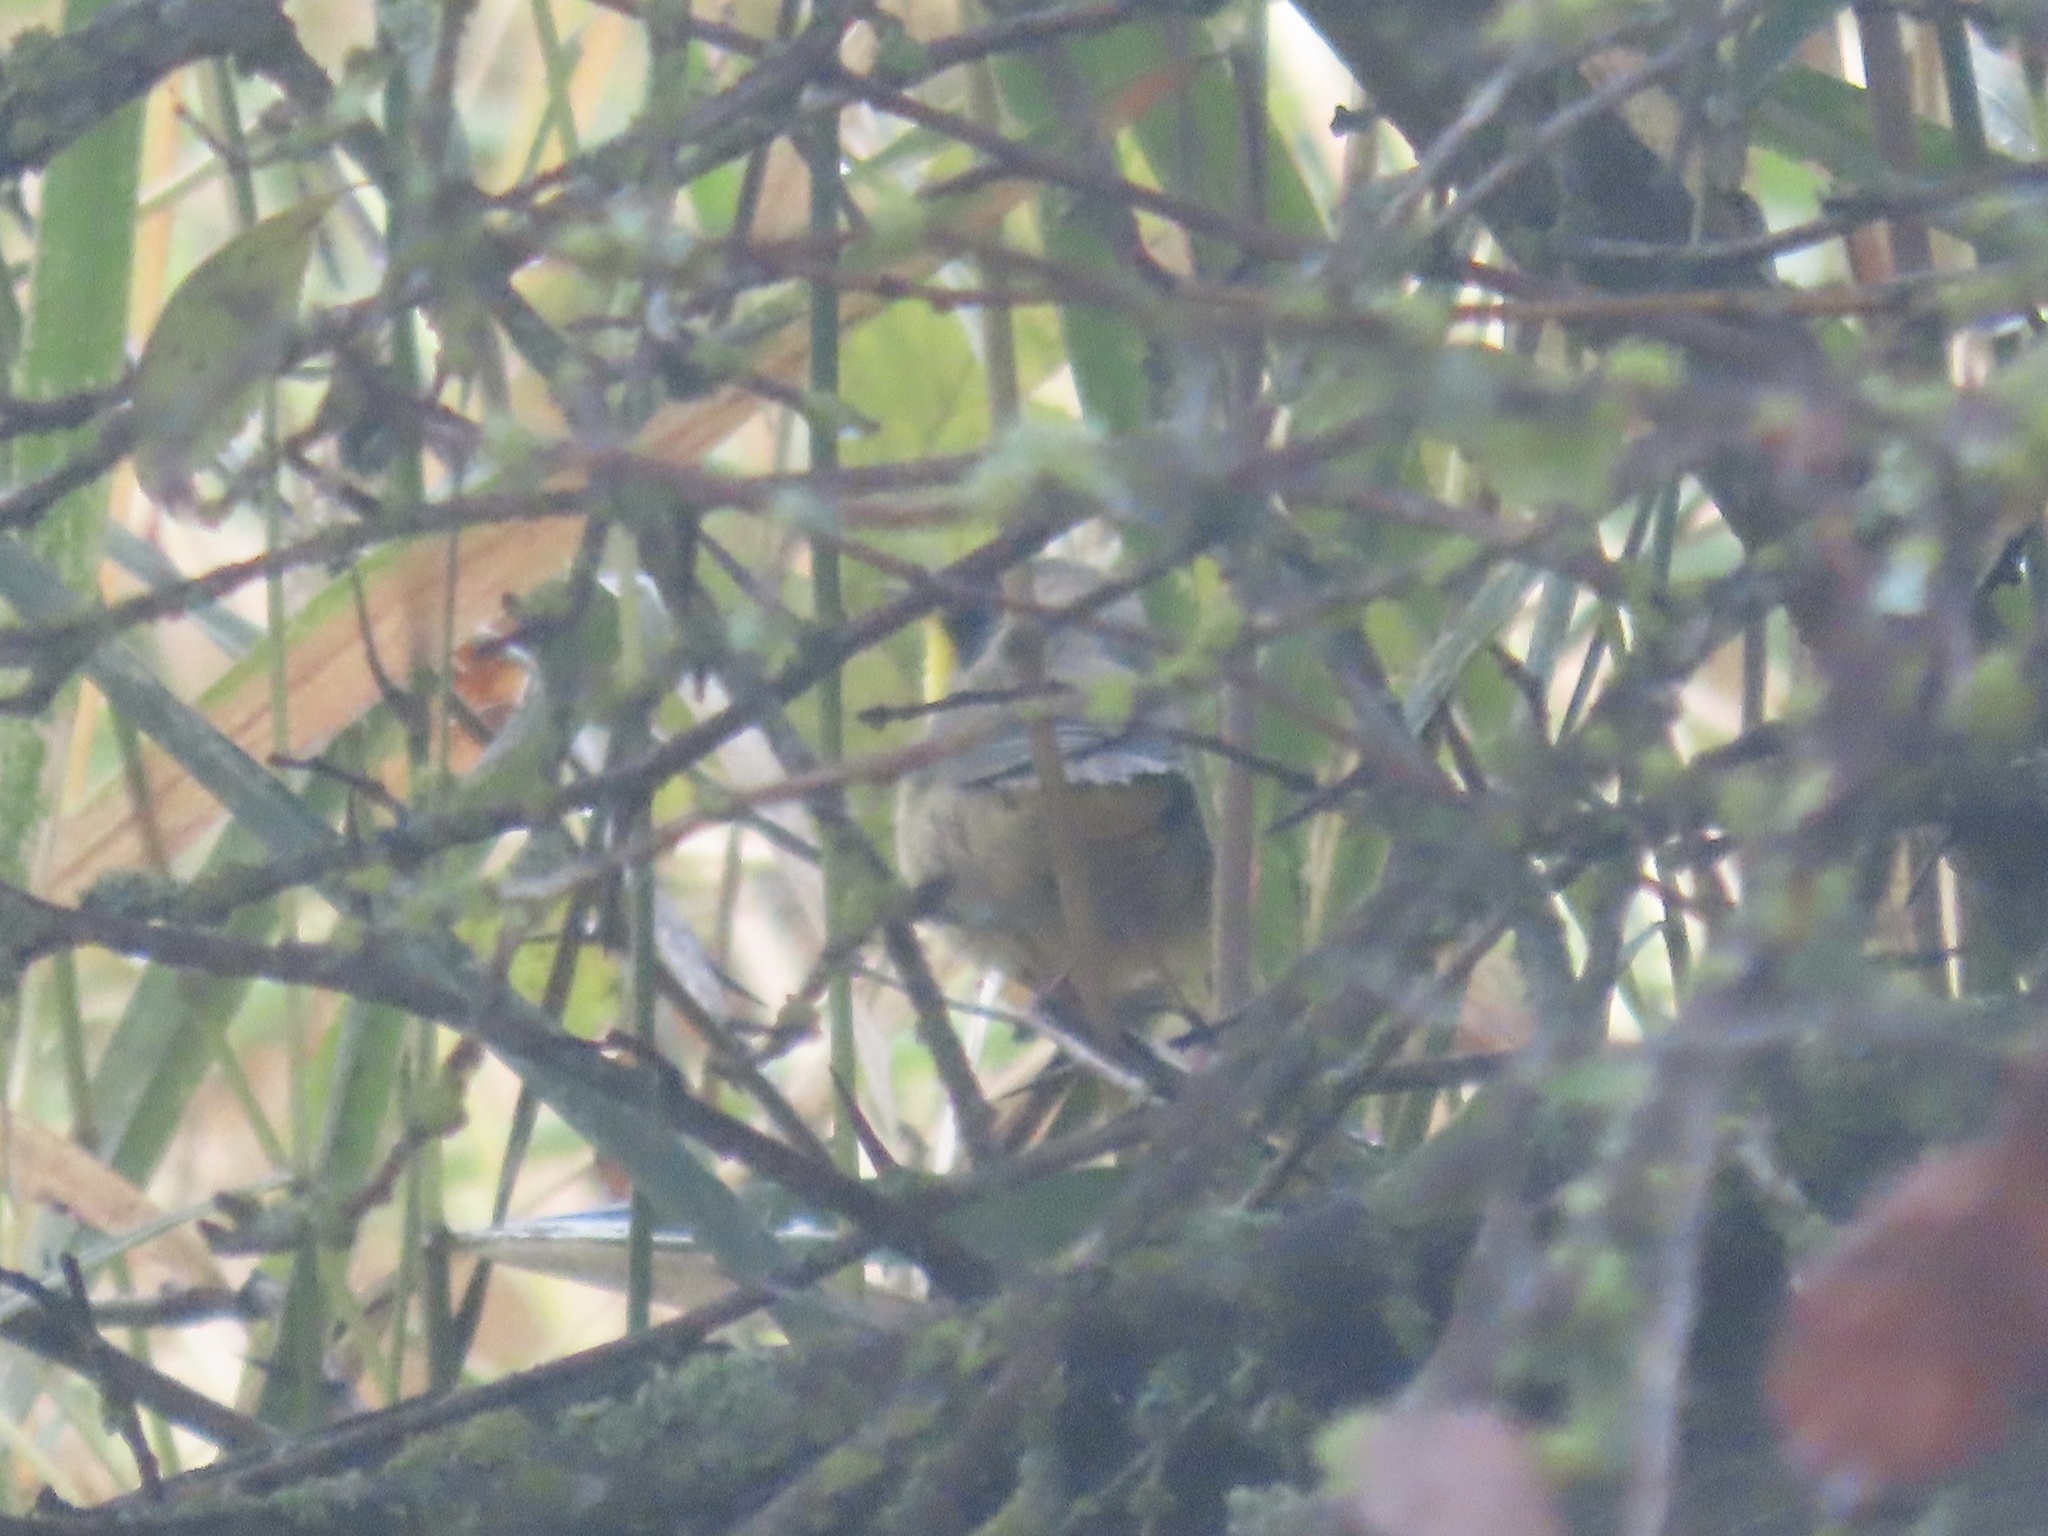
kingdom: Animalia
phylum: Chordata
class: Aves
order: Passeriformes
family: Parulidae
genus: Geothlypis
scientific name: Geothlypis trichas
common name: Common yellowthroat
